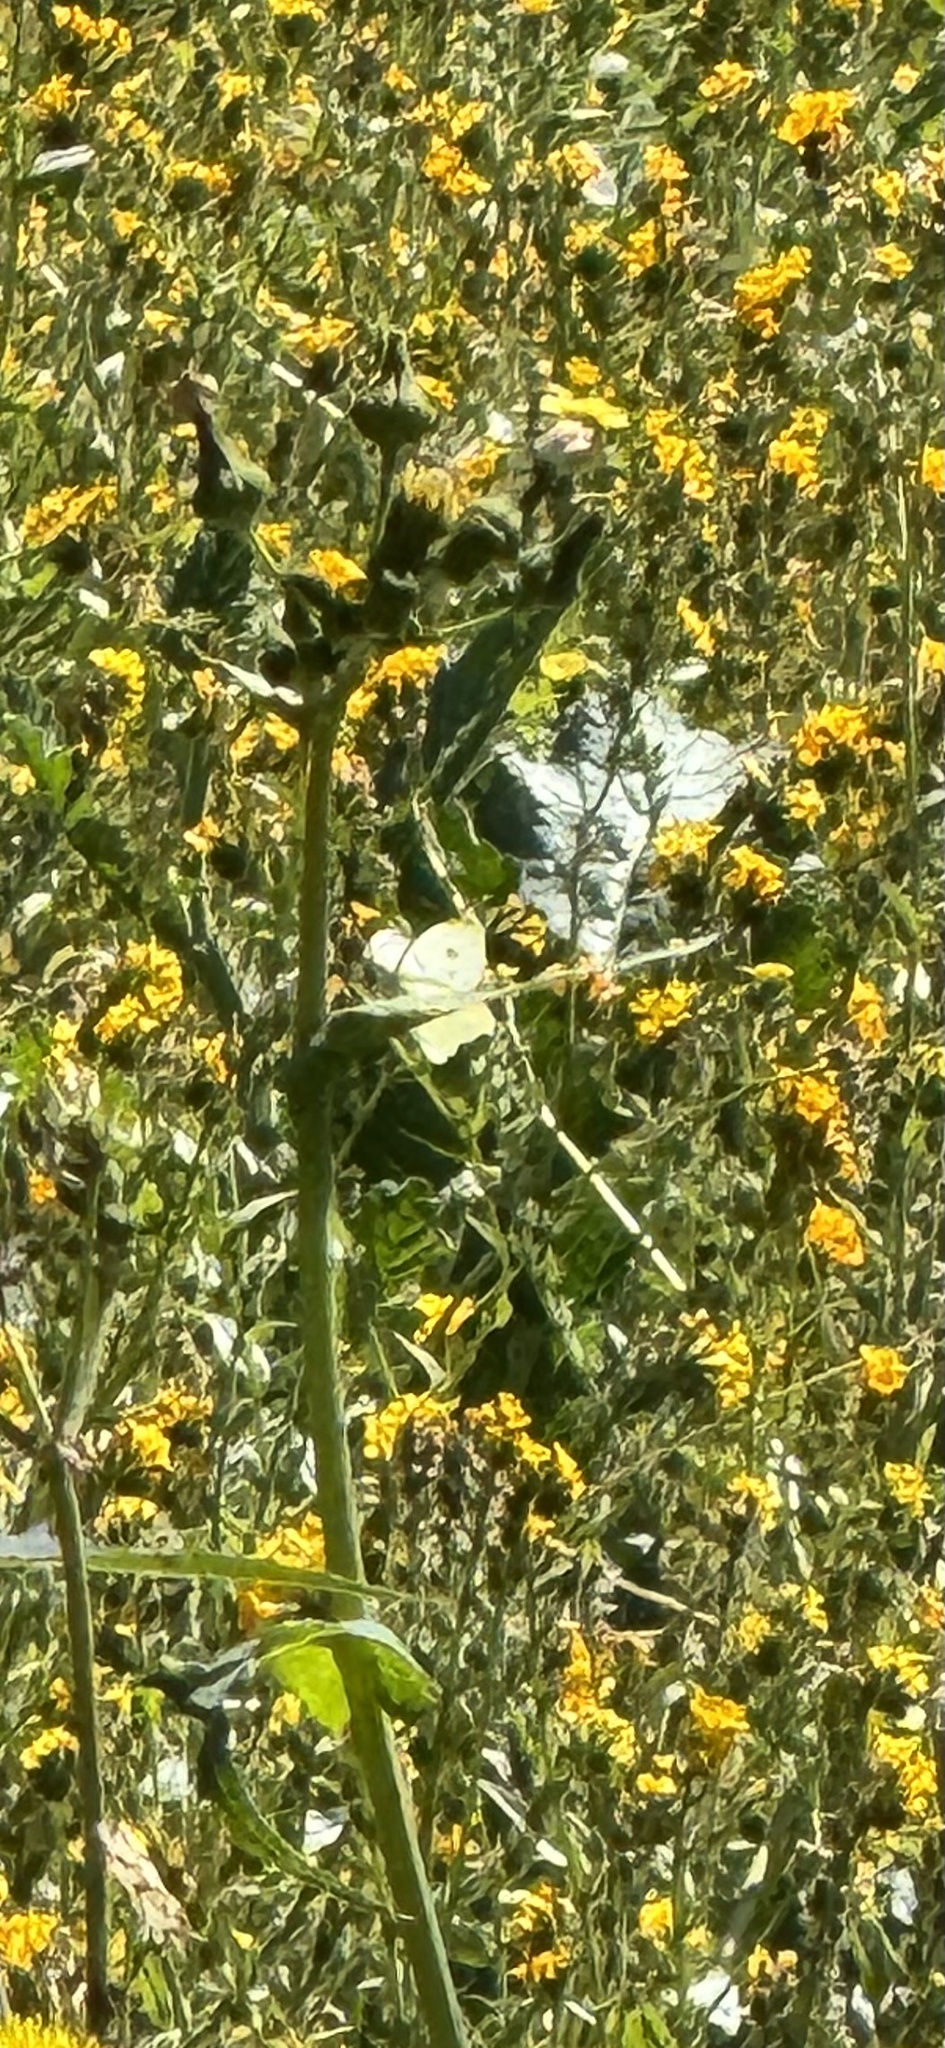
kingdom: Animalia
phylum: Arthropoda
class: Insecta
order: Lepidoptera
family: Pieridae
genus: Pieris
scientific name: Pieris rapae
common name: Small white
